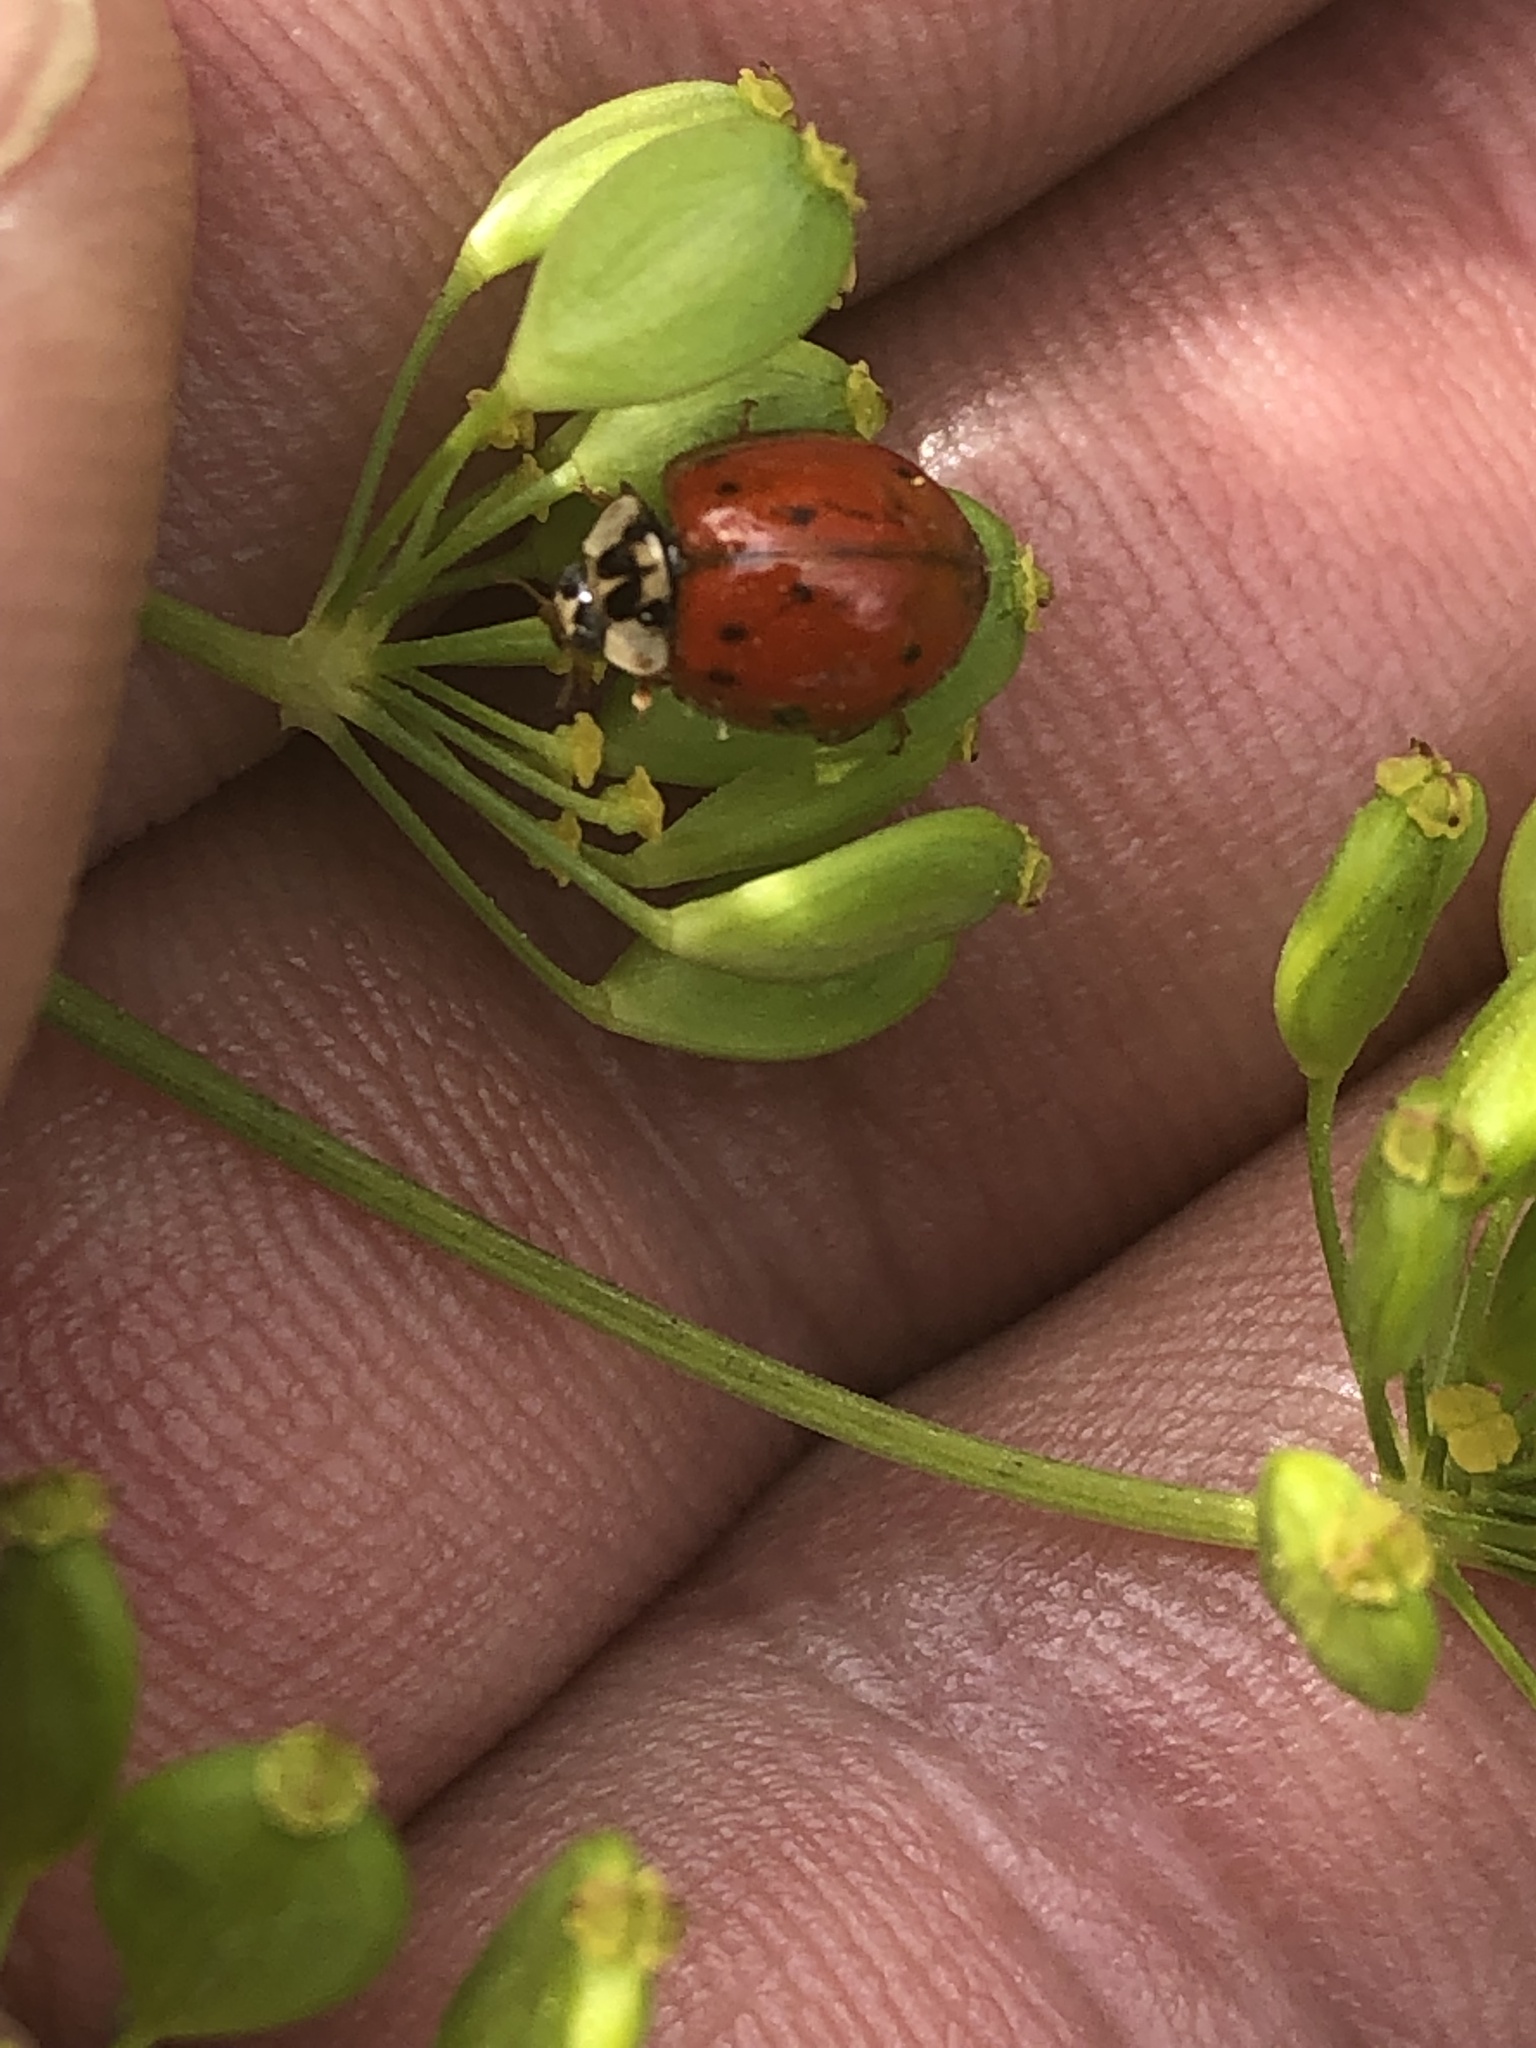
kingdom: Animalia
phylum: Arthropoda
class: Insecta
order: Coleoptera
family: Coccinellidae
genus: Harmonia
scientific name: Harmonia axyridis
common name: Harlequin ladybird
